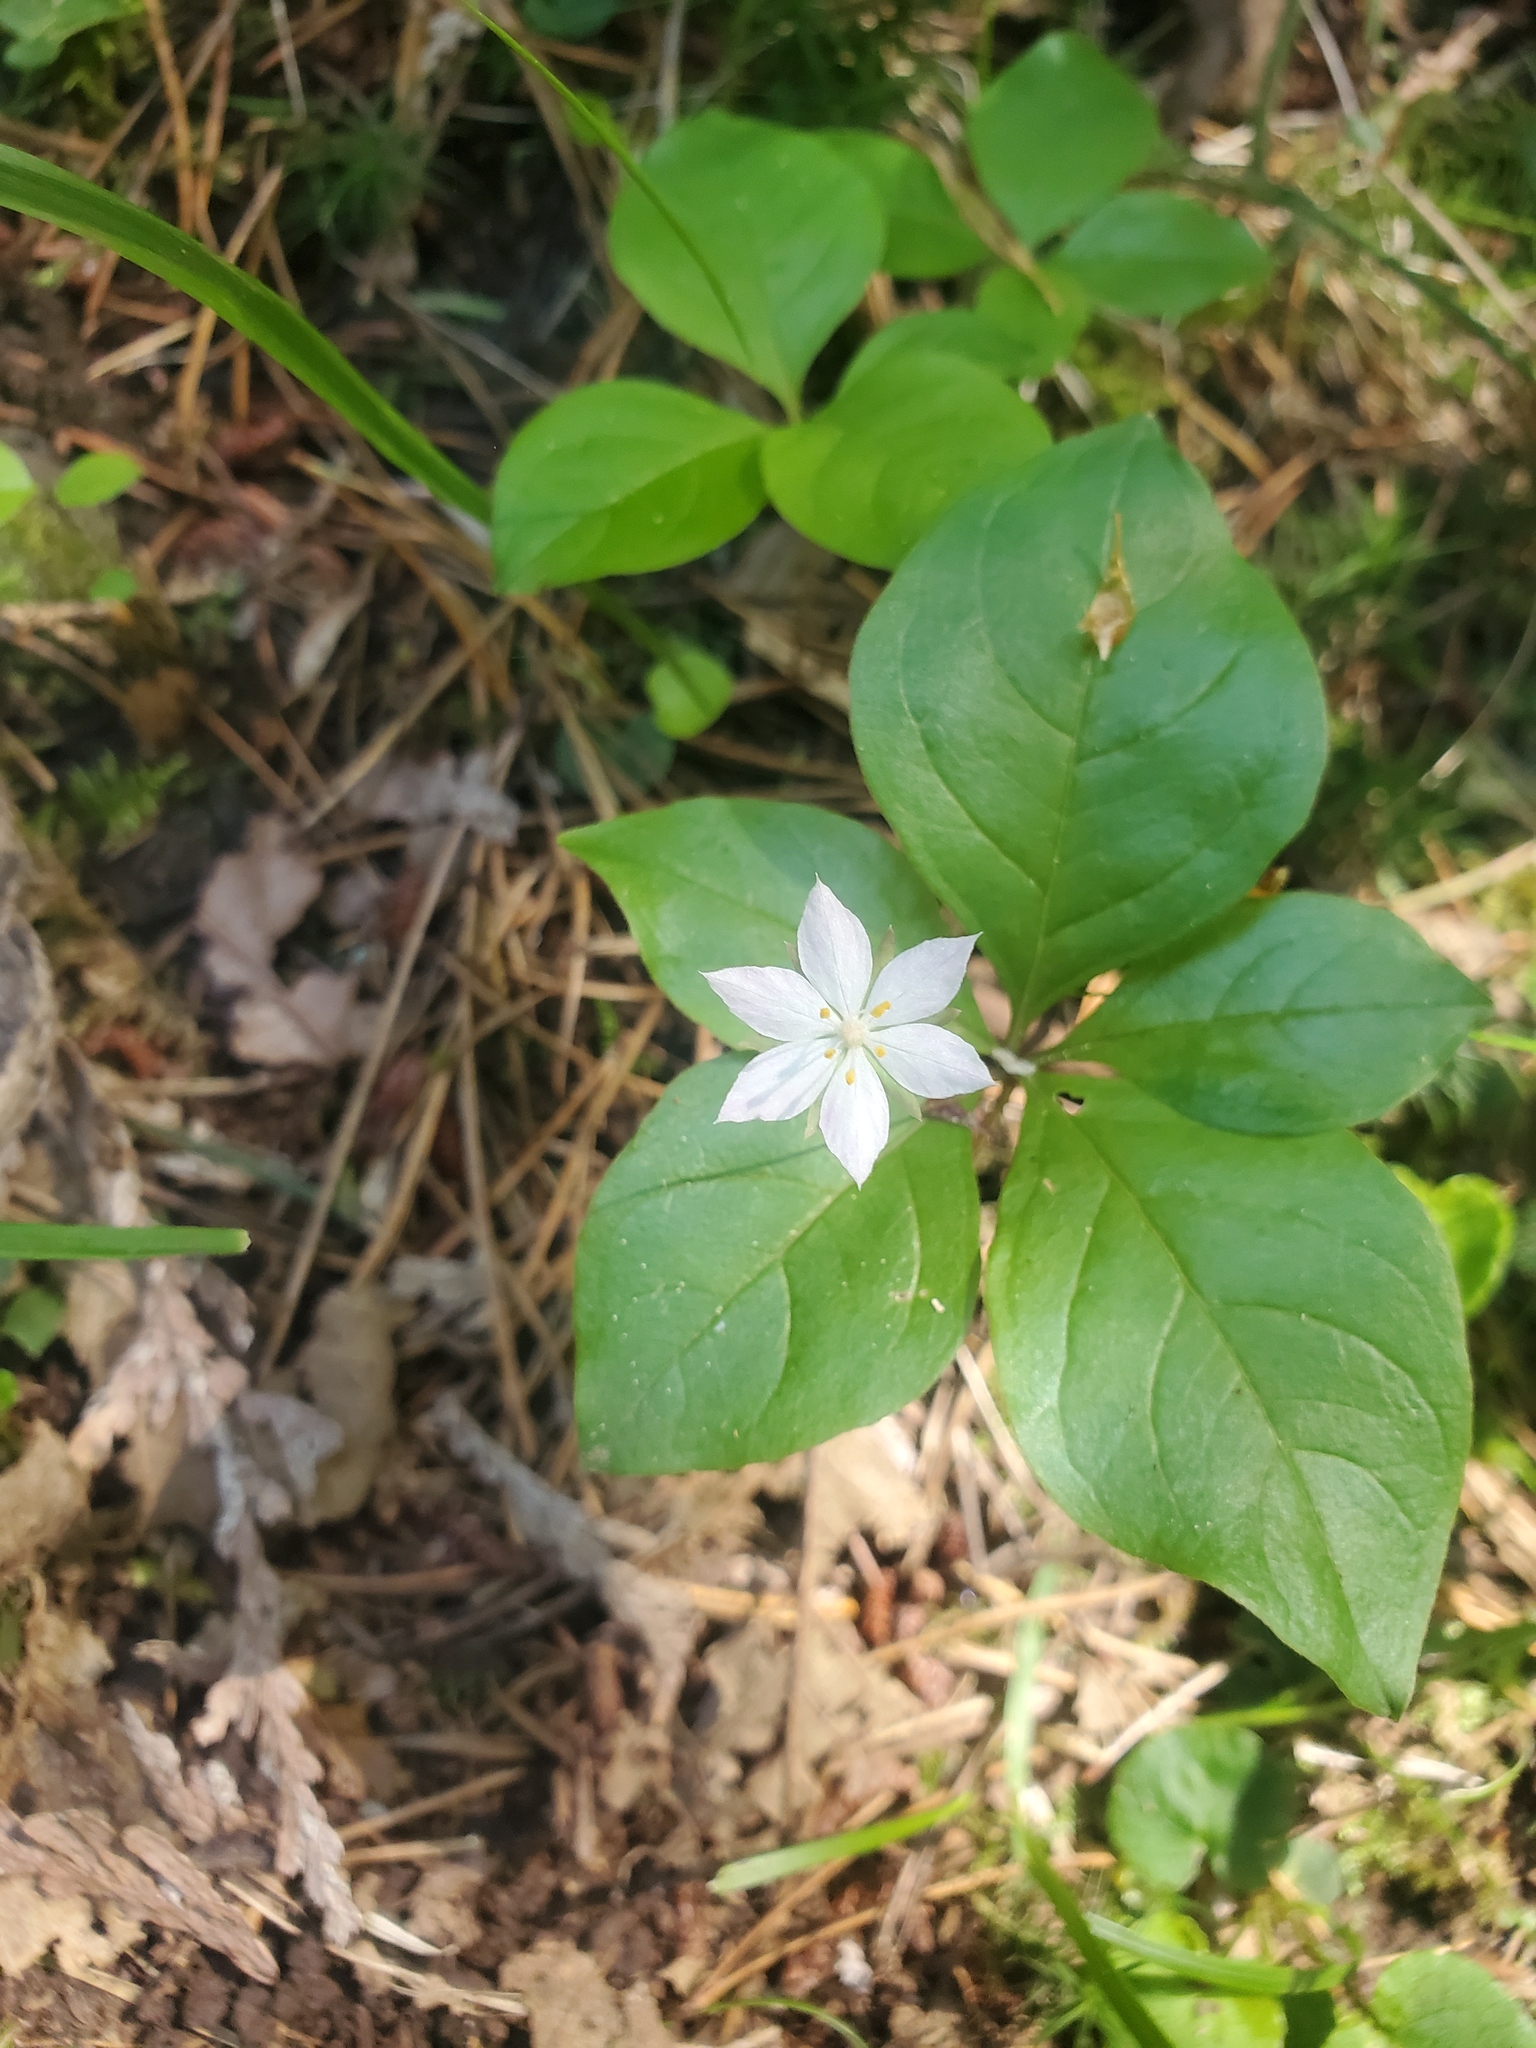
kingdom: Plantae
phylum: Tracheophyta
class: Magnoliopsida
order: Ericales
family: Primulaceae
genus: Lysimachia
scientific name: Lysimachia latifolia
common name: Pacific starflower
